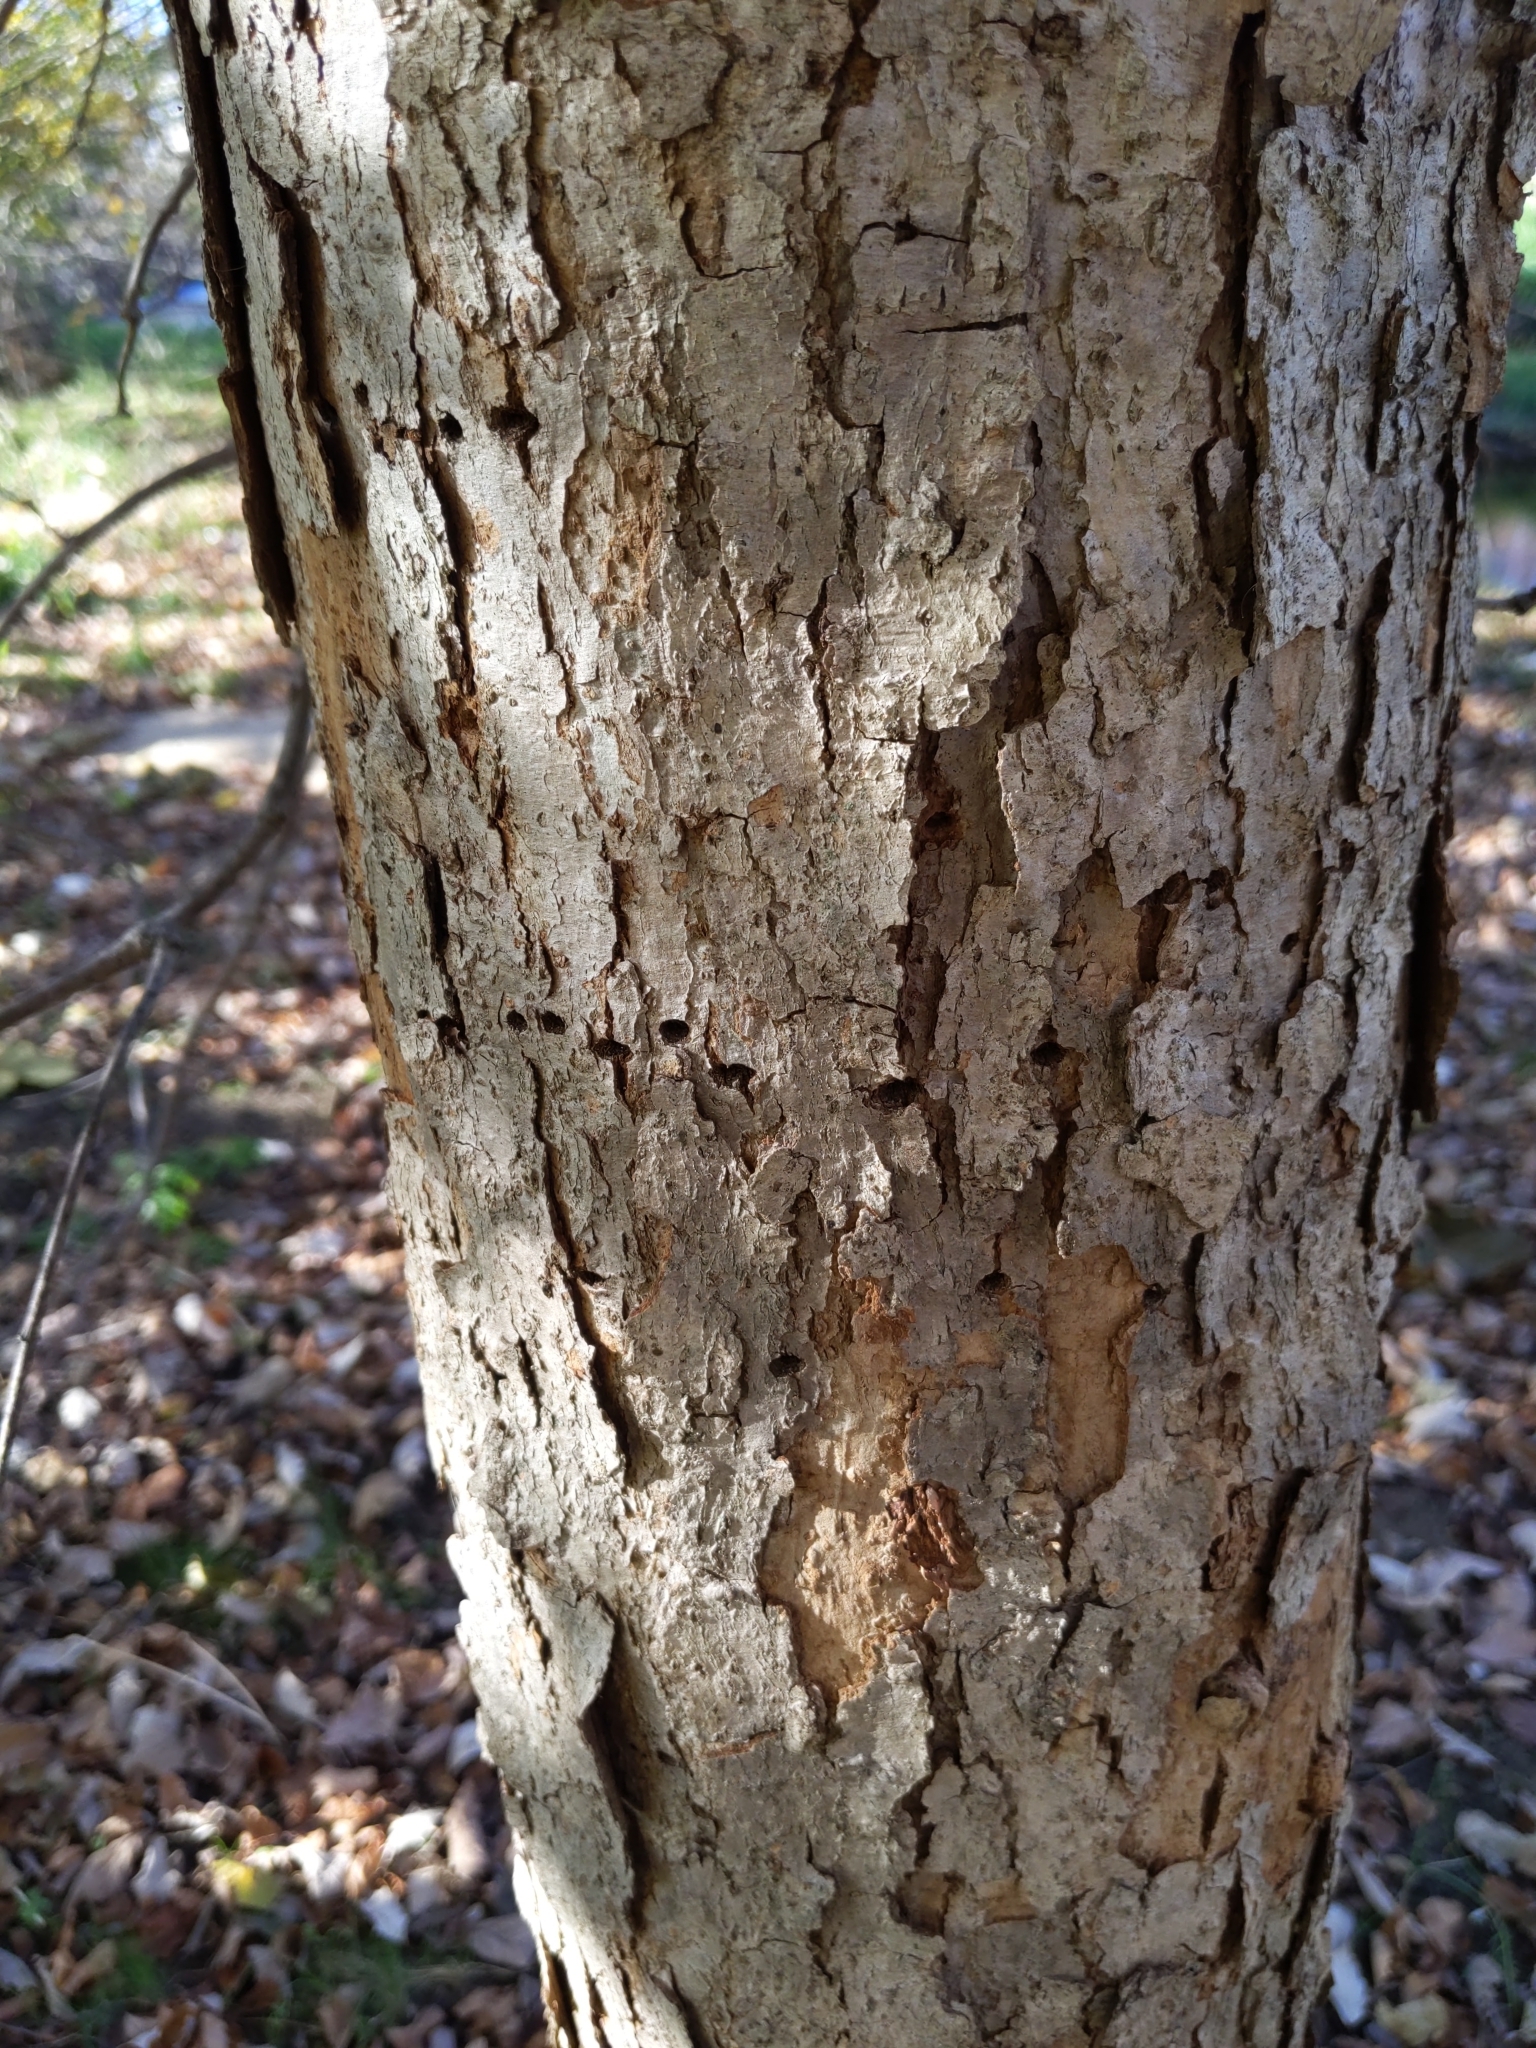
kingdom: Animalia
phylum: Chordata
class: Aves
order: Piciformes
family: Picidae
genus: Sphyrapicus
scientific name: Sphyrapicus varius
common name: Yellow-bellied sapsucker
